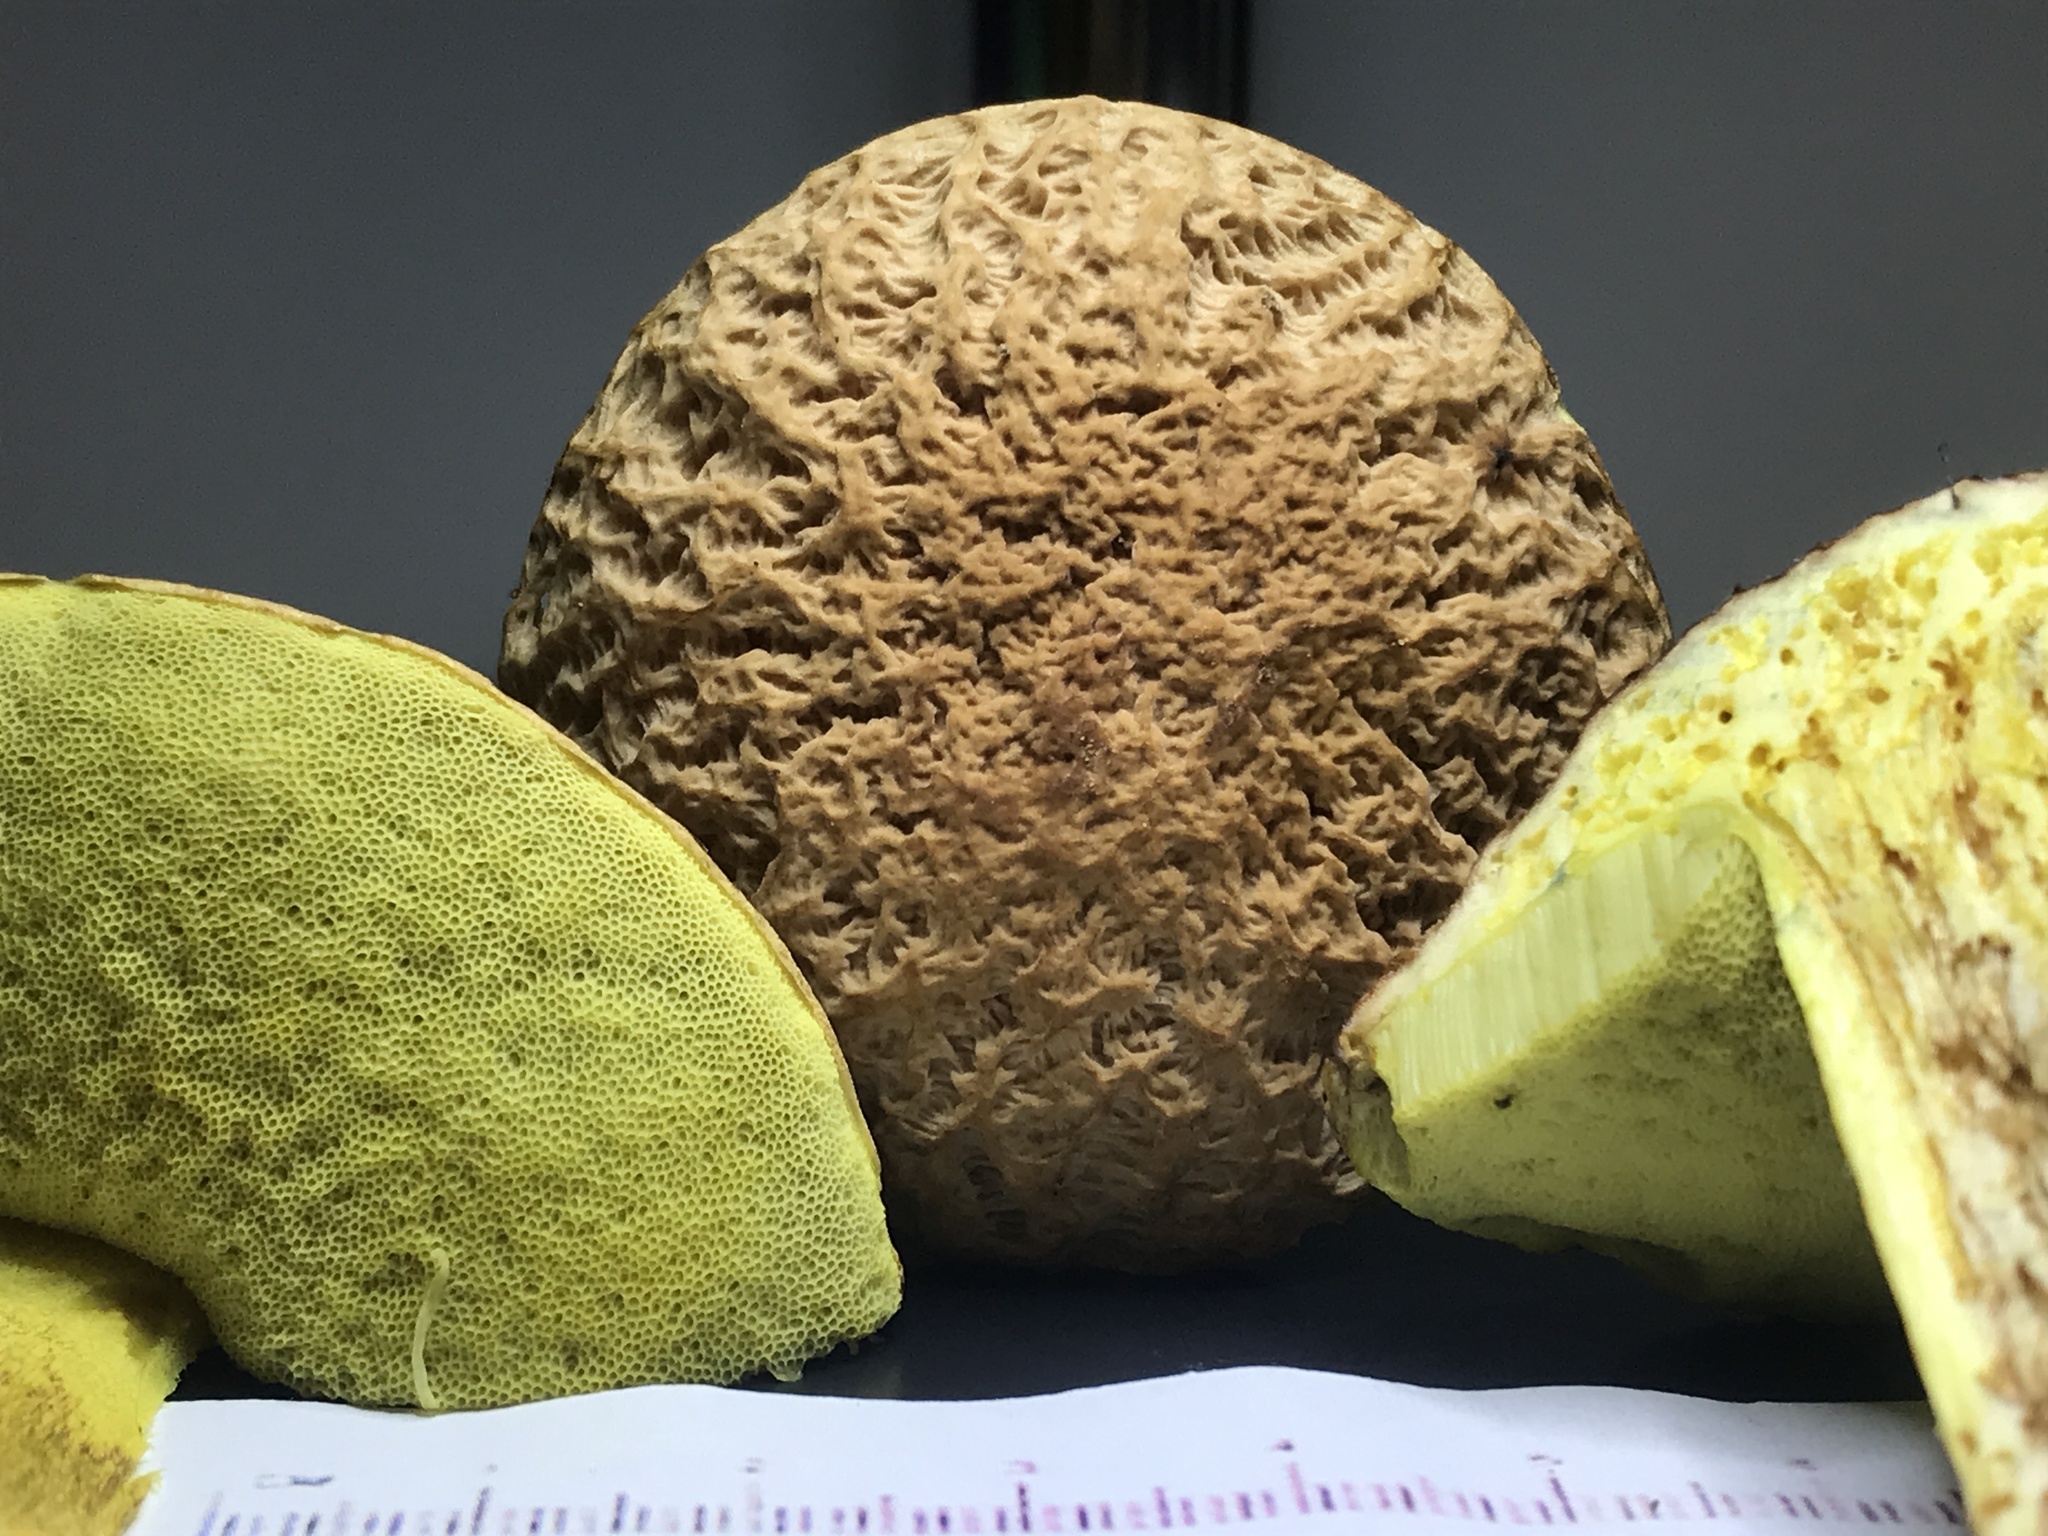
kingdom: Fungi
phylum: Basidiomycota
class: Agaricomycetes
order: Boletales
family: Boletaceae
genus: Hemileccinum
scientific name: Hemileccinum hortonii
